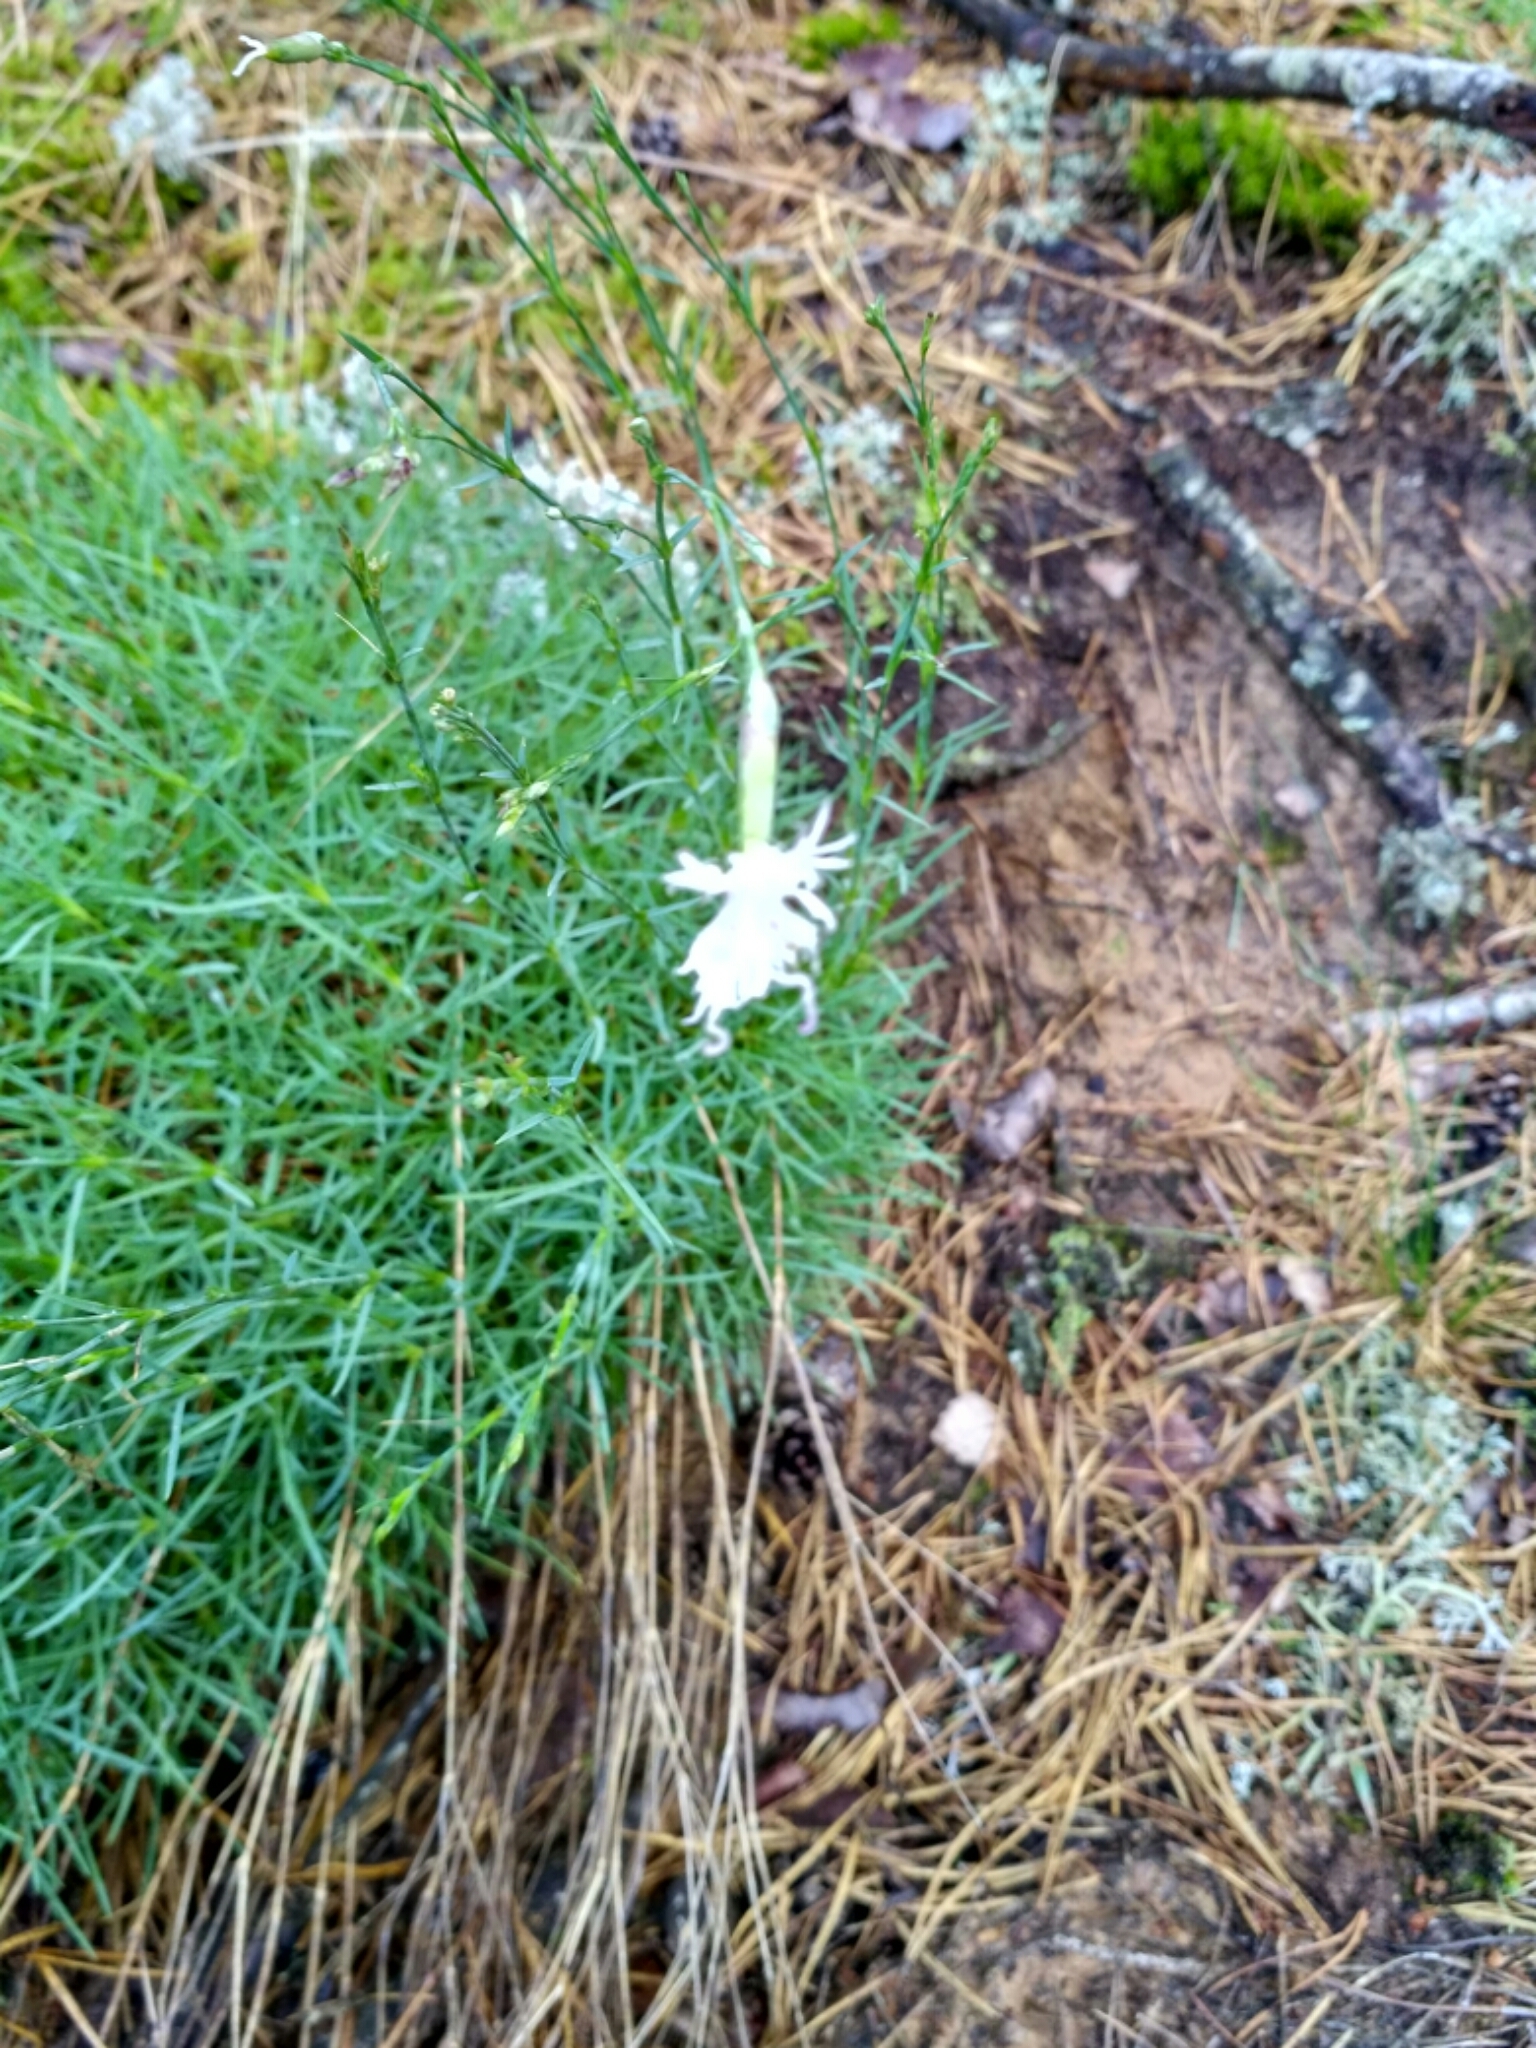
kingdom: Plantae
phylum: Tracheophyta
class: Magnoliopsida
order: Caryophyllales
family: Caryophyllaceae
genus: Dianthus
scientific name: Dianthus arenarius
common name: Stone pink
